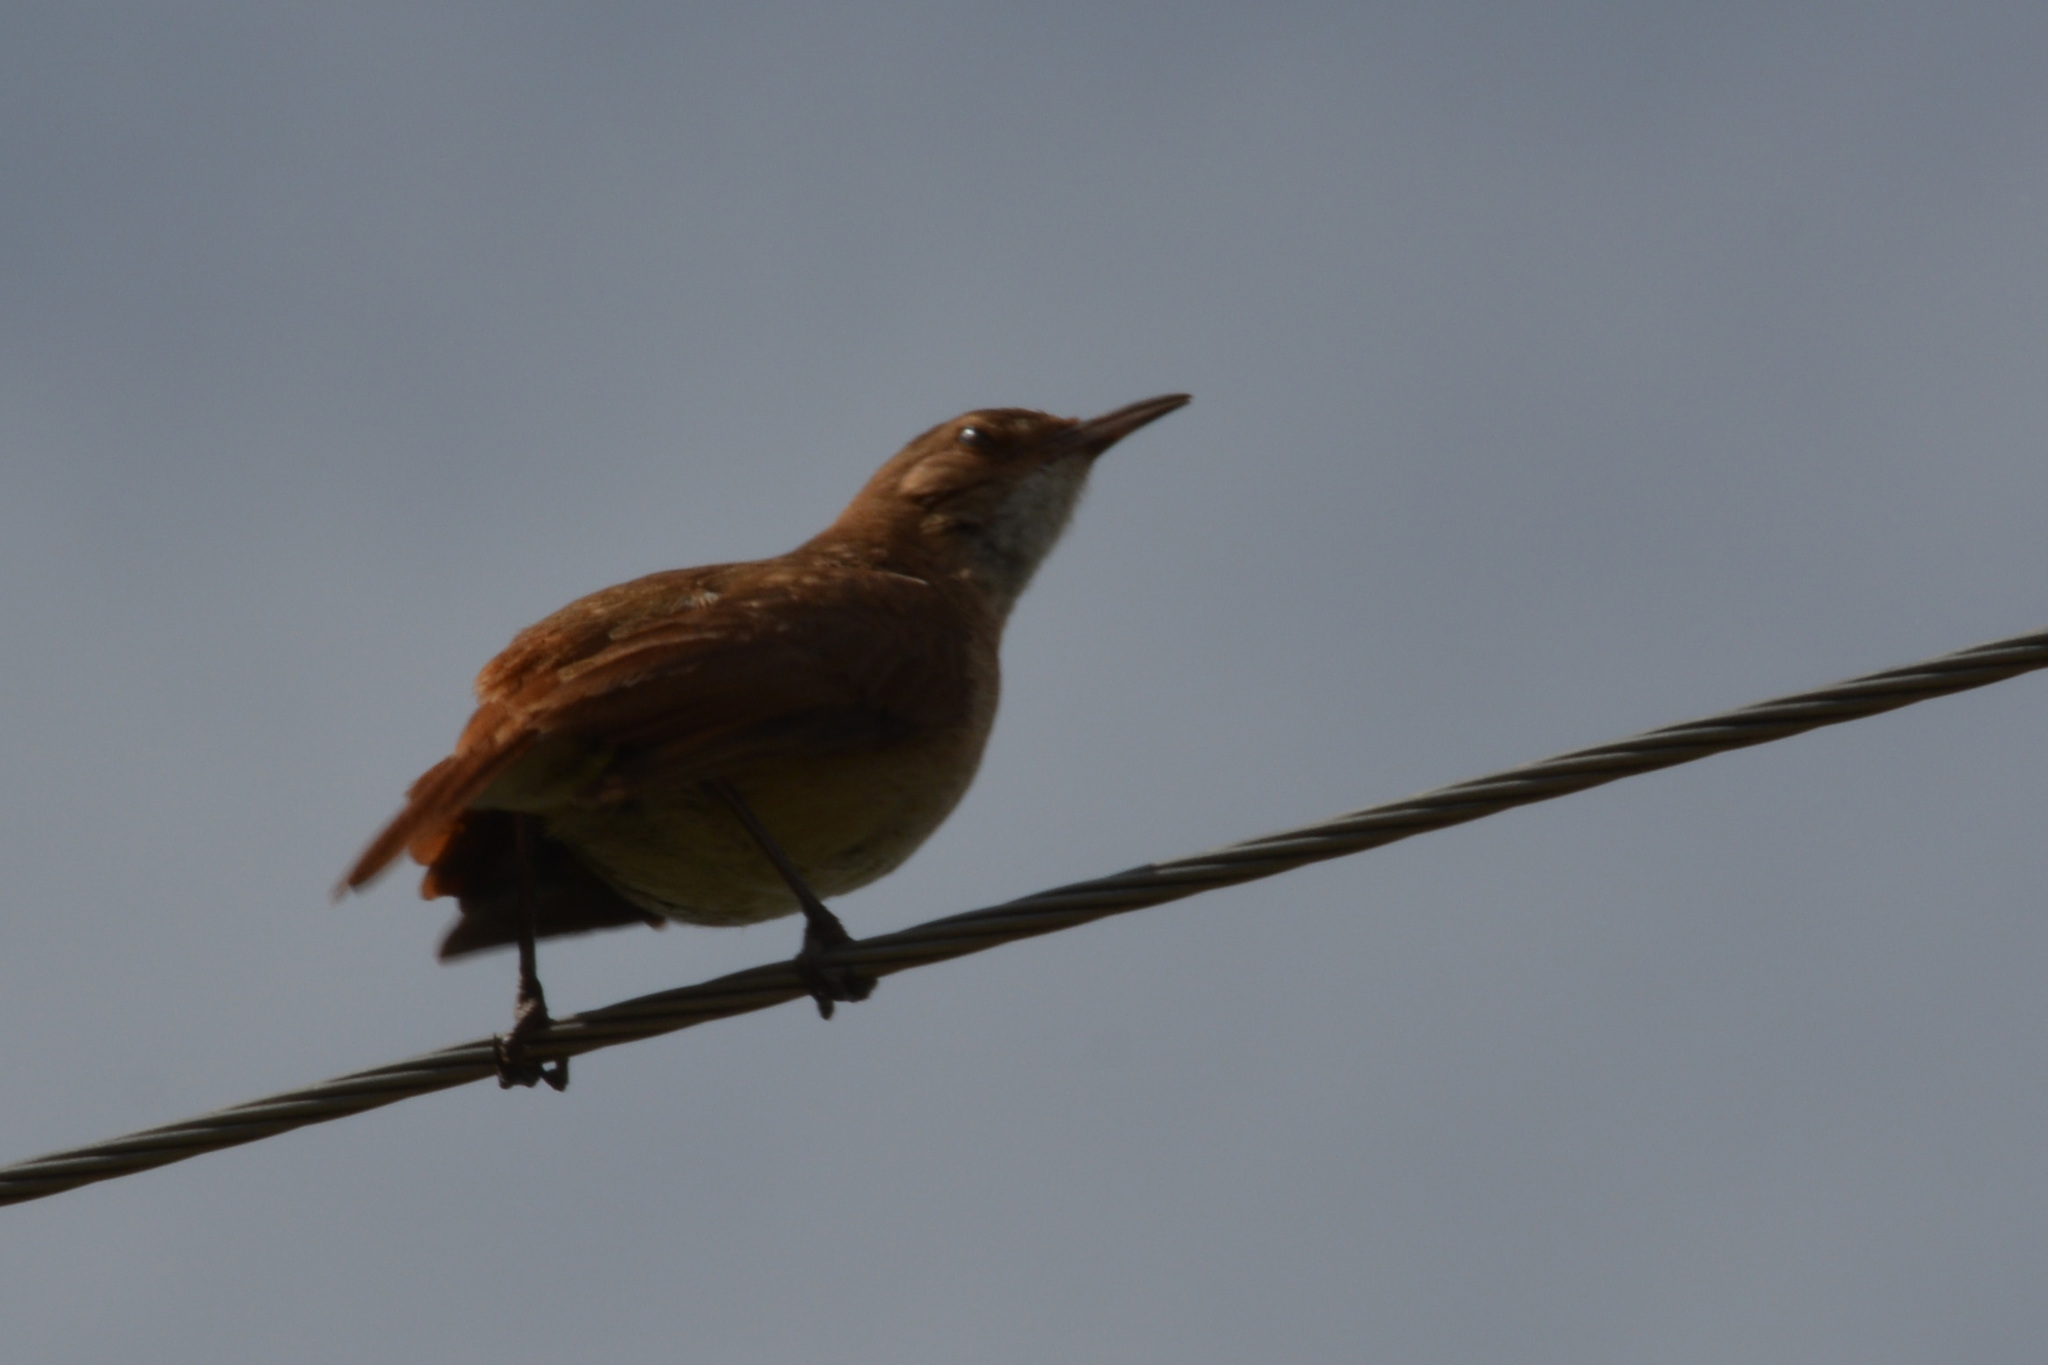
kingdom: Animalia
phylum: Chordata
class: Aves
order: Passeriformes
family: Furnariidae
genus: Furnarius
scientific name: Furnarius rufus
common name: Rufous hornero
